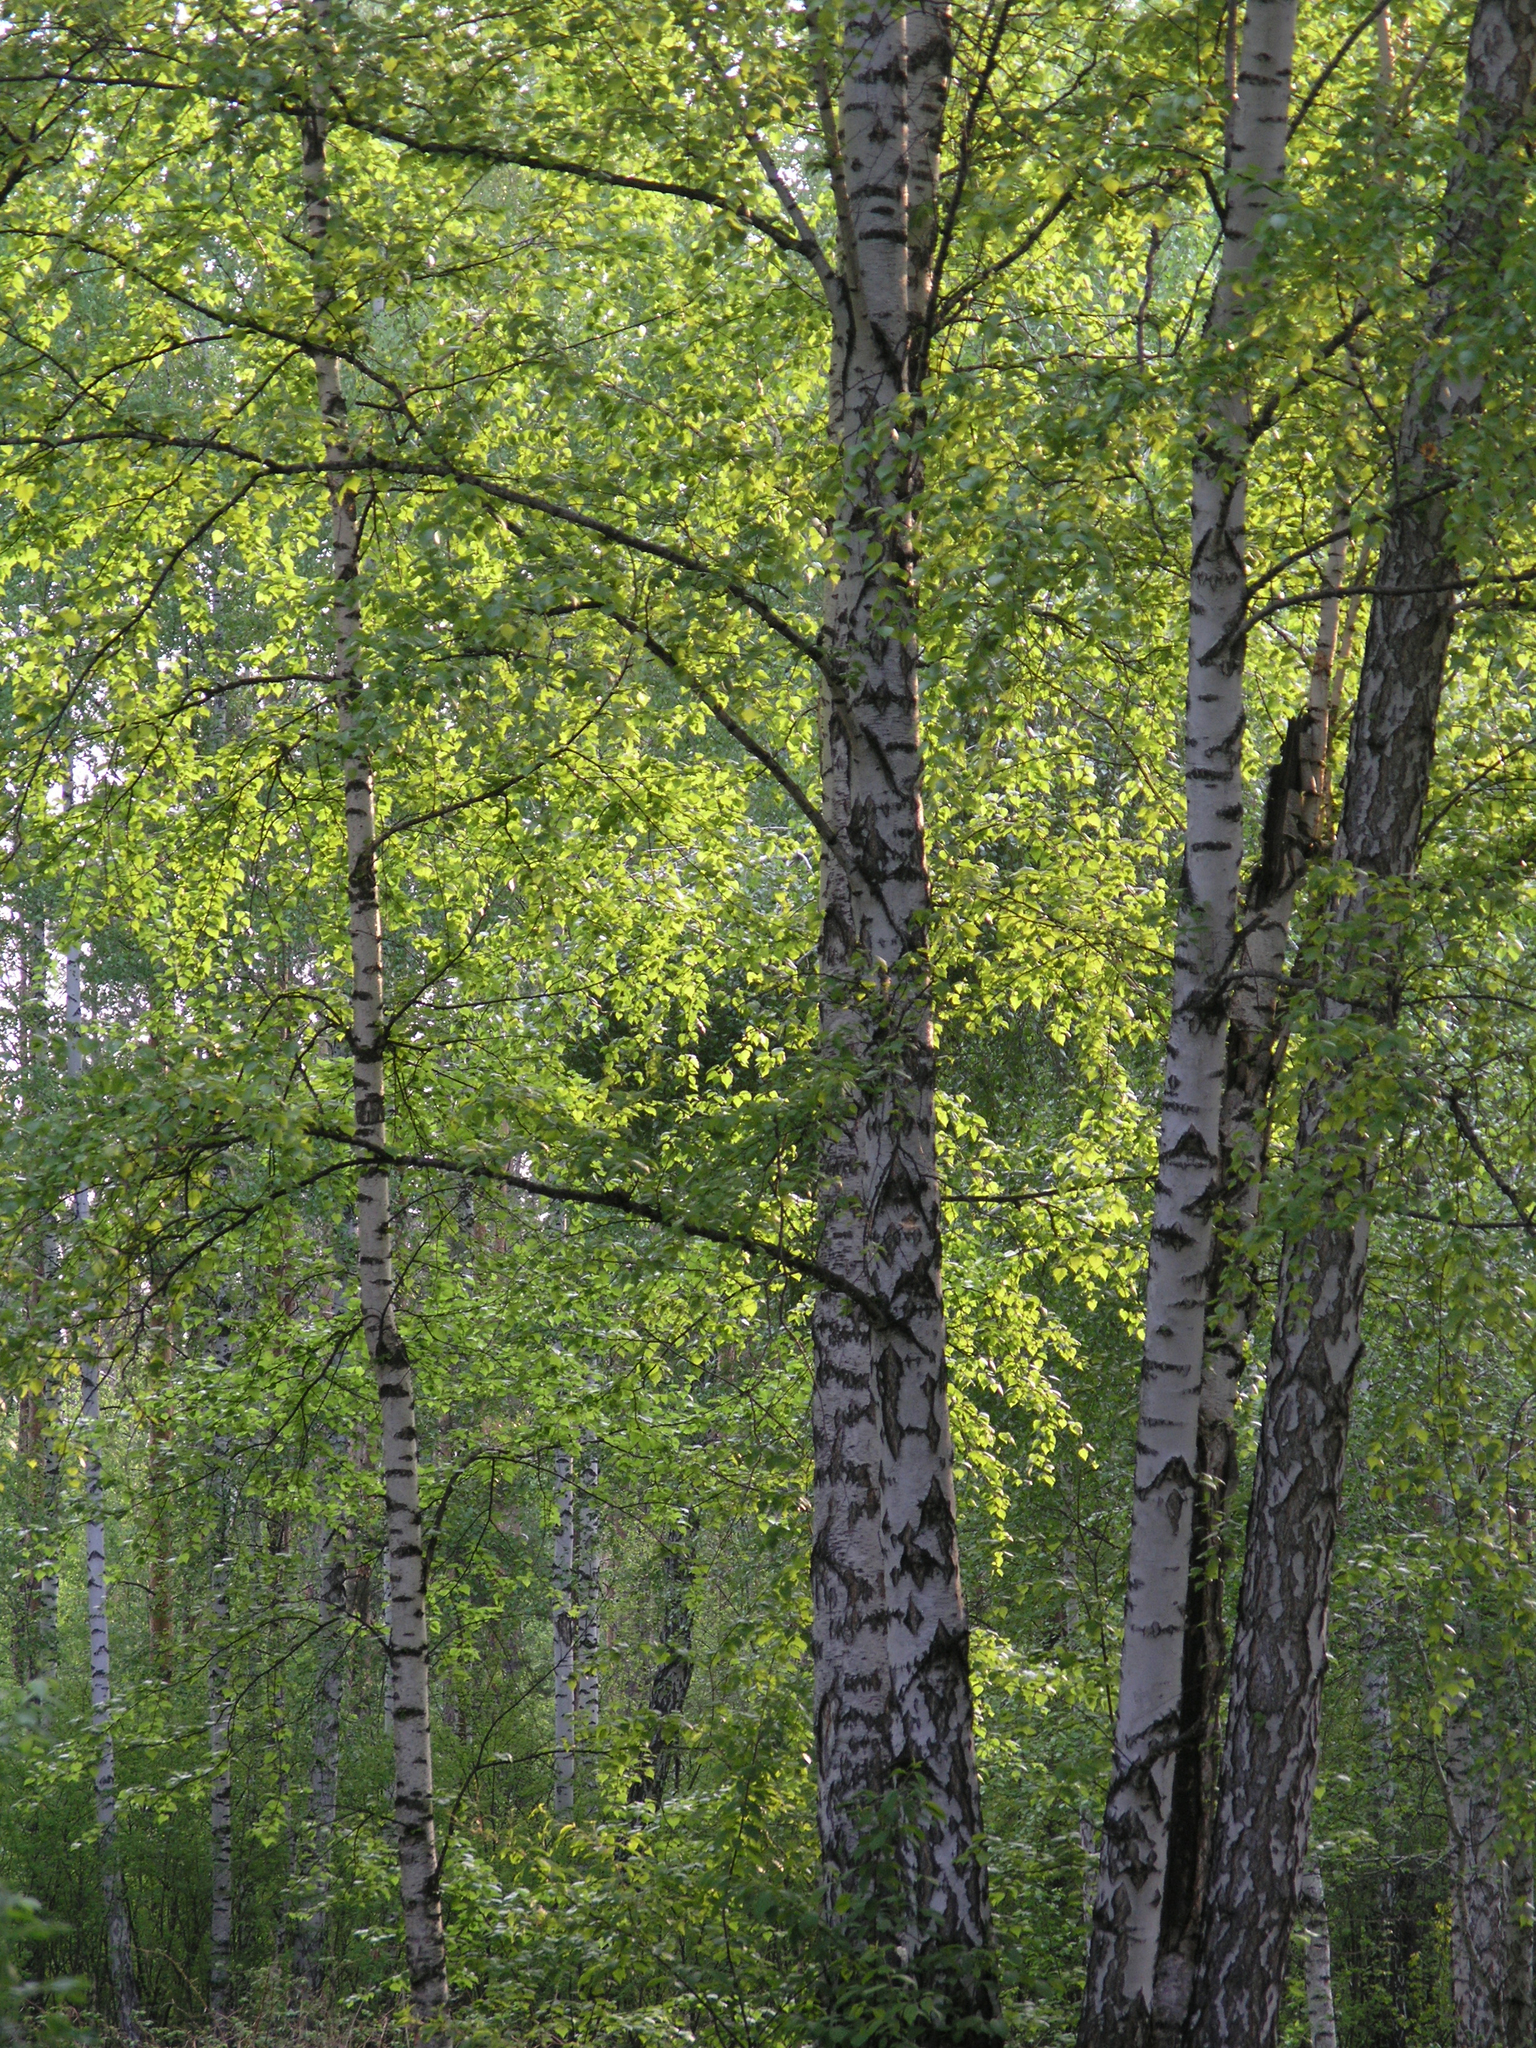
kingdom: Plantae
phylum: Tracheophyta
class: Magnoliopsida
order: Fagales
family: Betulaceae
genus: Betula
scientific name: Betula pendula
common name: Silver birch
